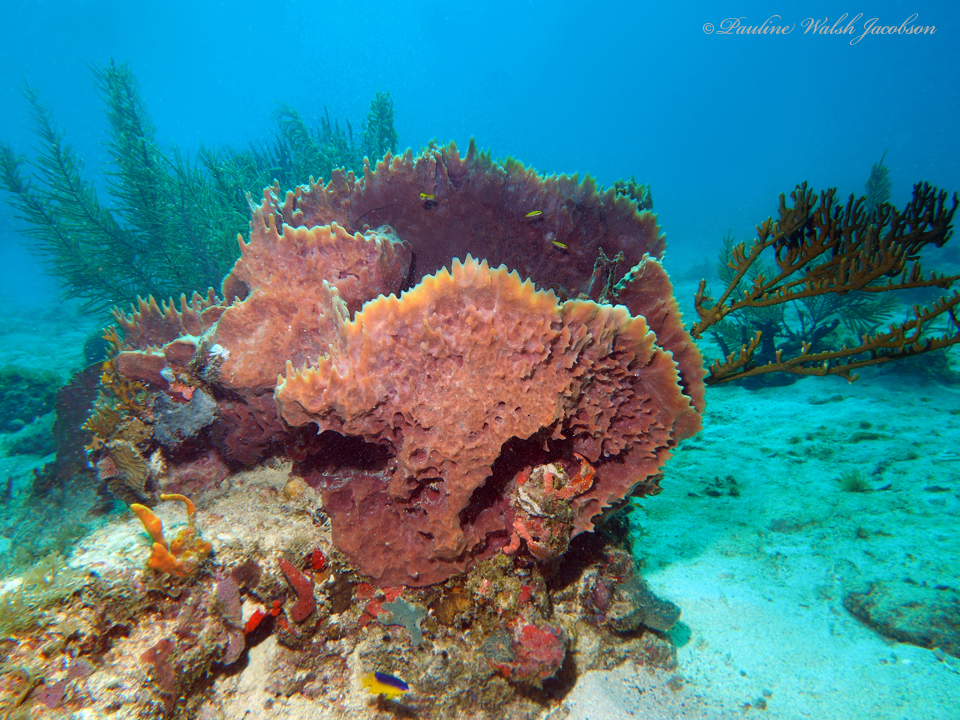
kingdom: Animalia
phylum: Porifera
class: Demospongiae
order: Haplosclerida
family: Petrosiidae
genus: Xestospongia
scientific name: Xestospongia muta
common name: Giant barrel sponge
